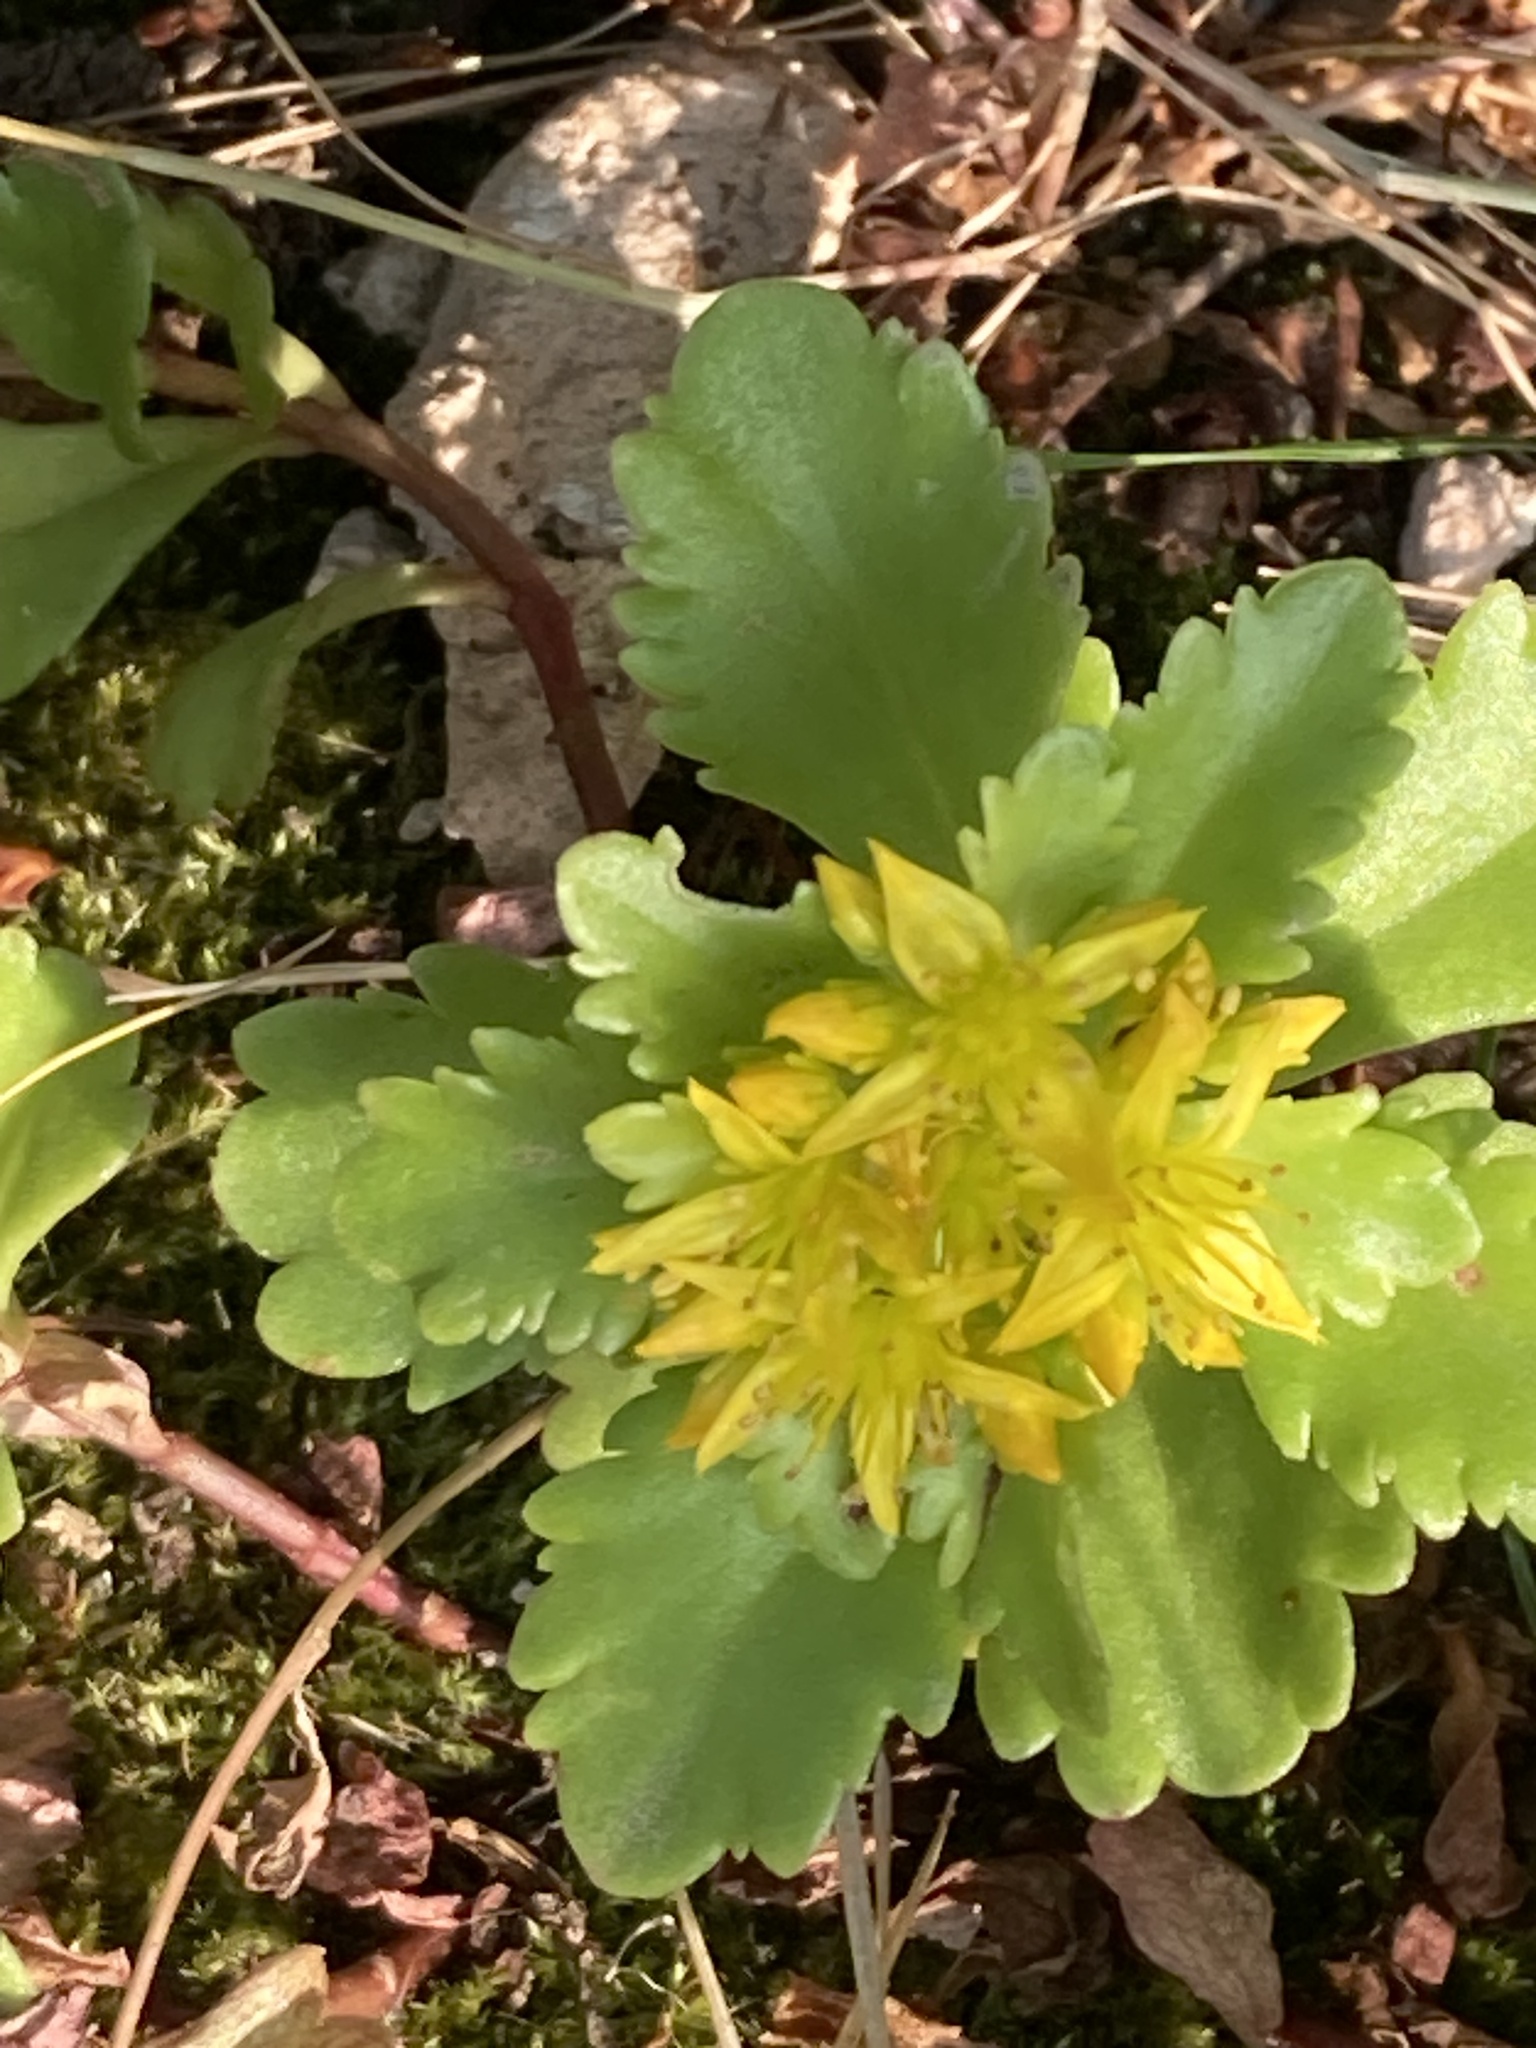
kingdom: Plantae
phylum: Tracheophyta
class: Magnoliopsida
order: Saxifragales
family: Crassulaceae
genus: Phedimus
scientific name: Phedimus ellacombeanus
